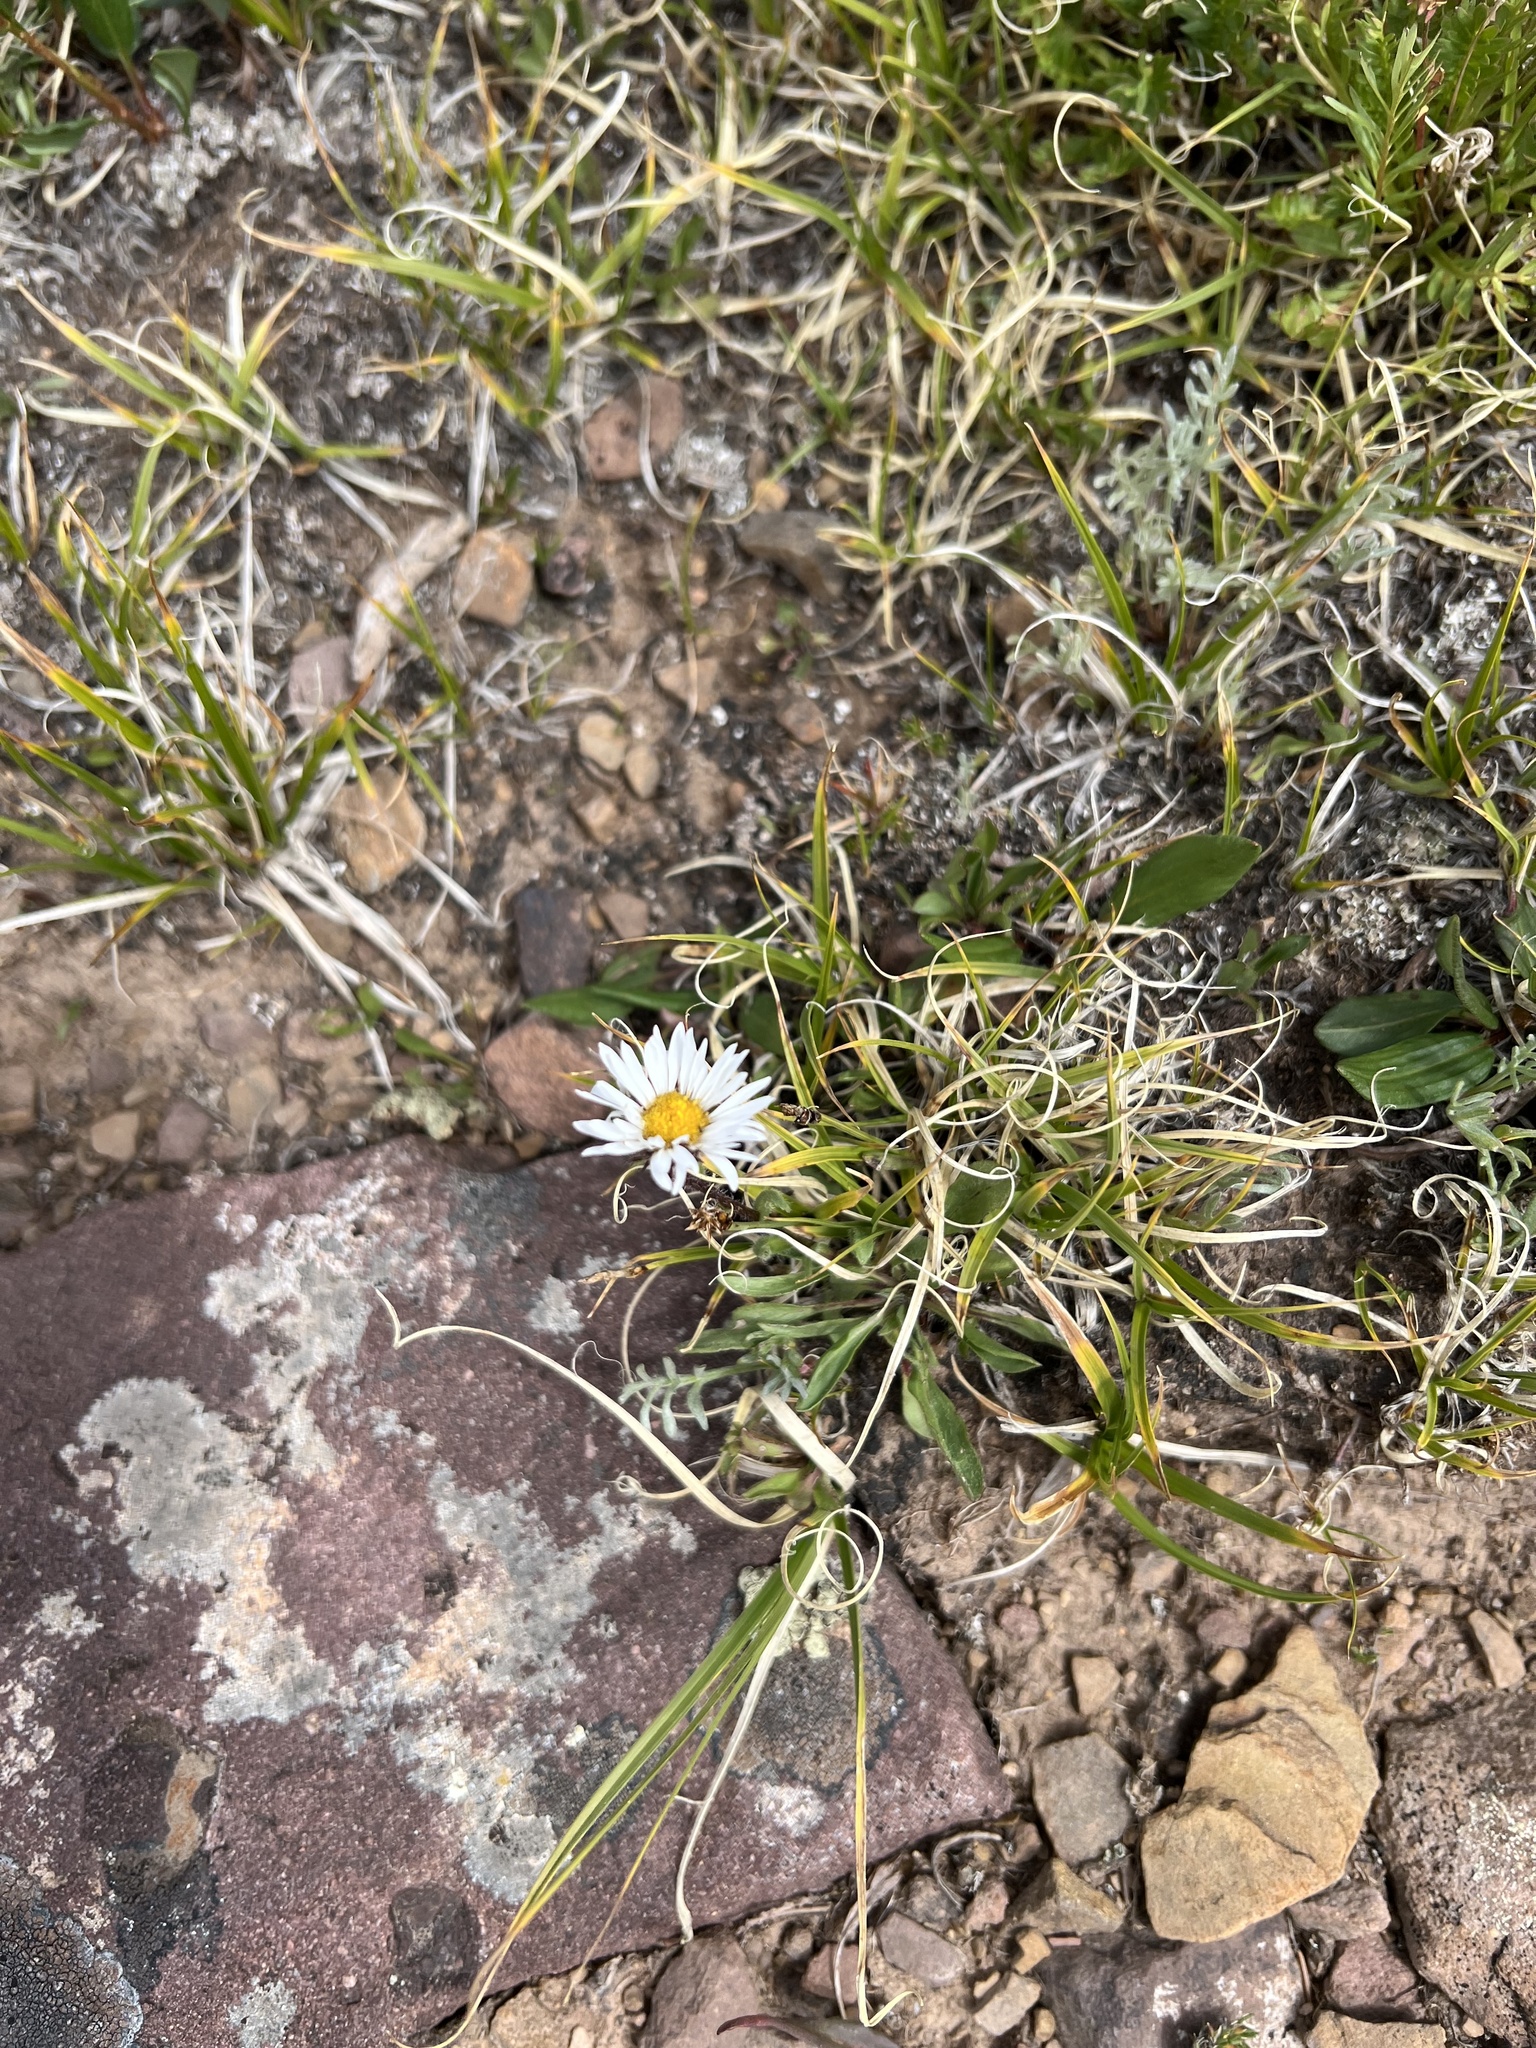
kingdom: Plantae
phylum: Tracheophyta
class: Magnoliopsida
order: Asterales
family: Asteraceae
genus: Erigeron
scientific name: Erigeron grandiflorus
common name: Rocky mountain alpine fleabane
